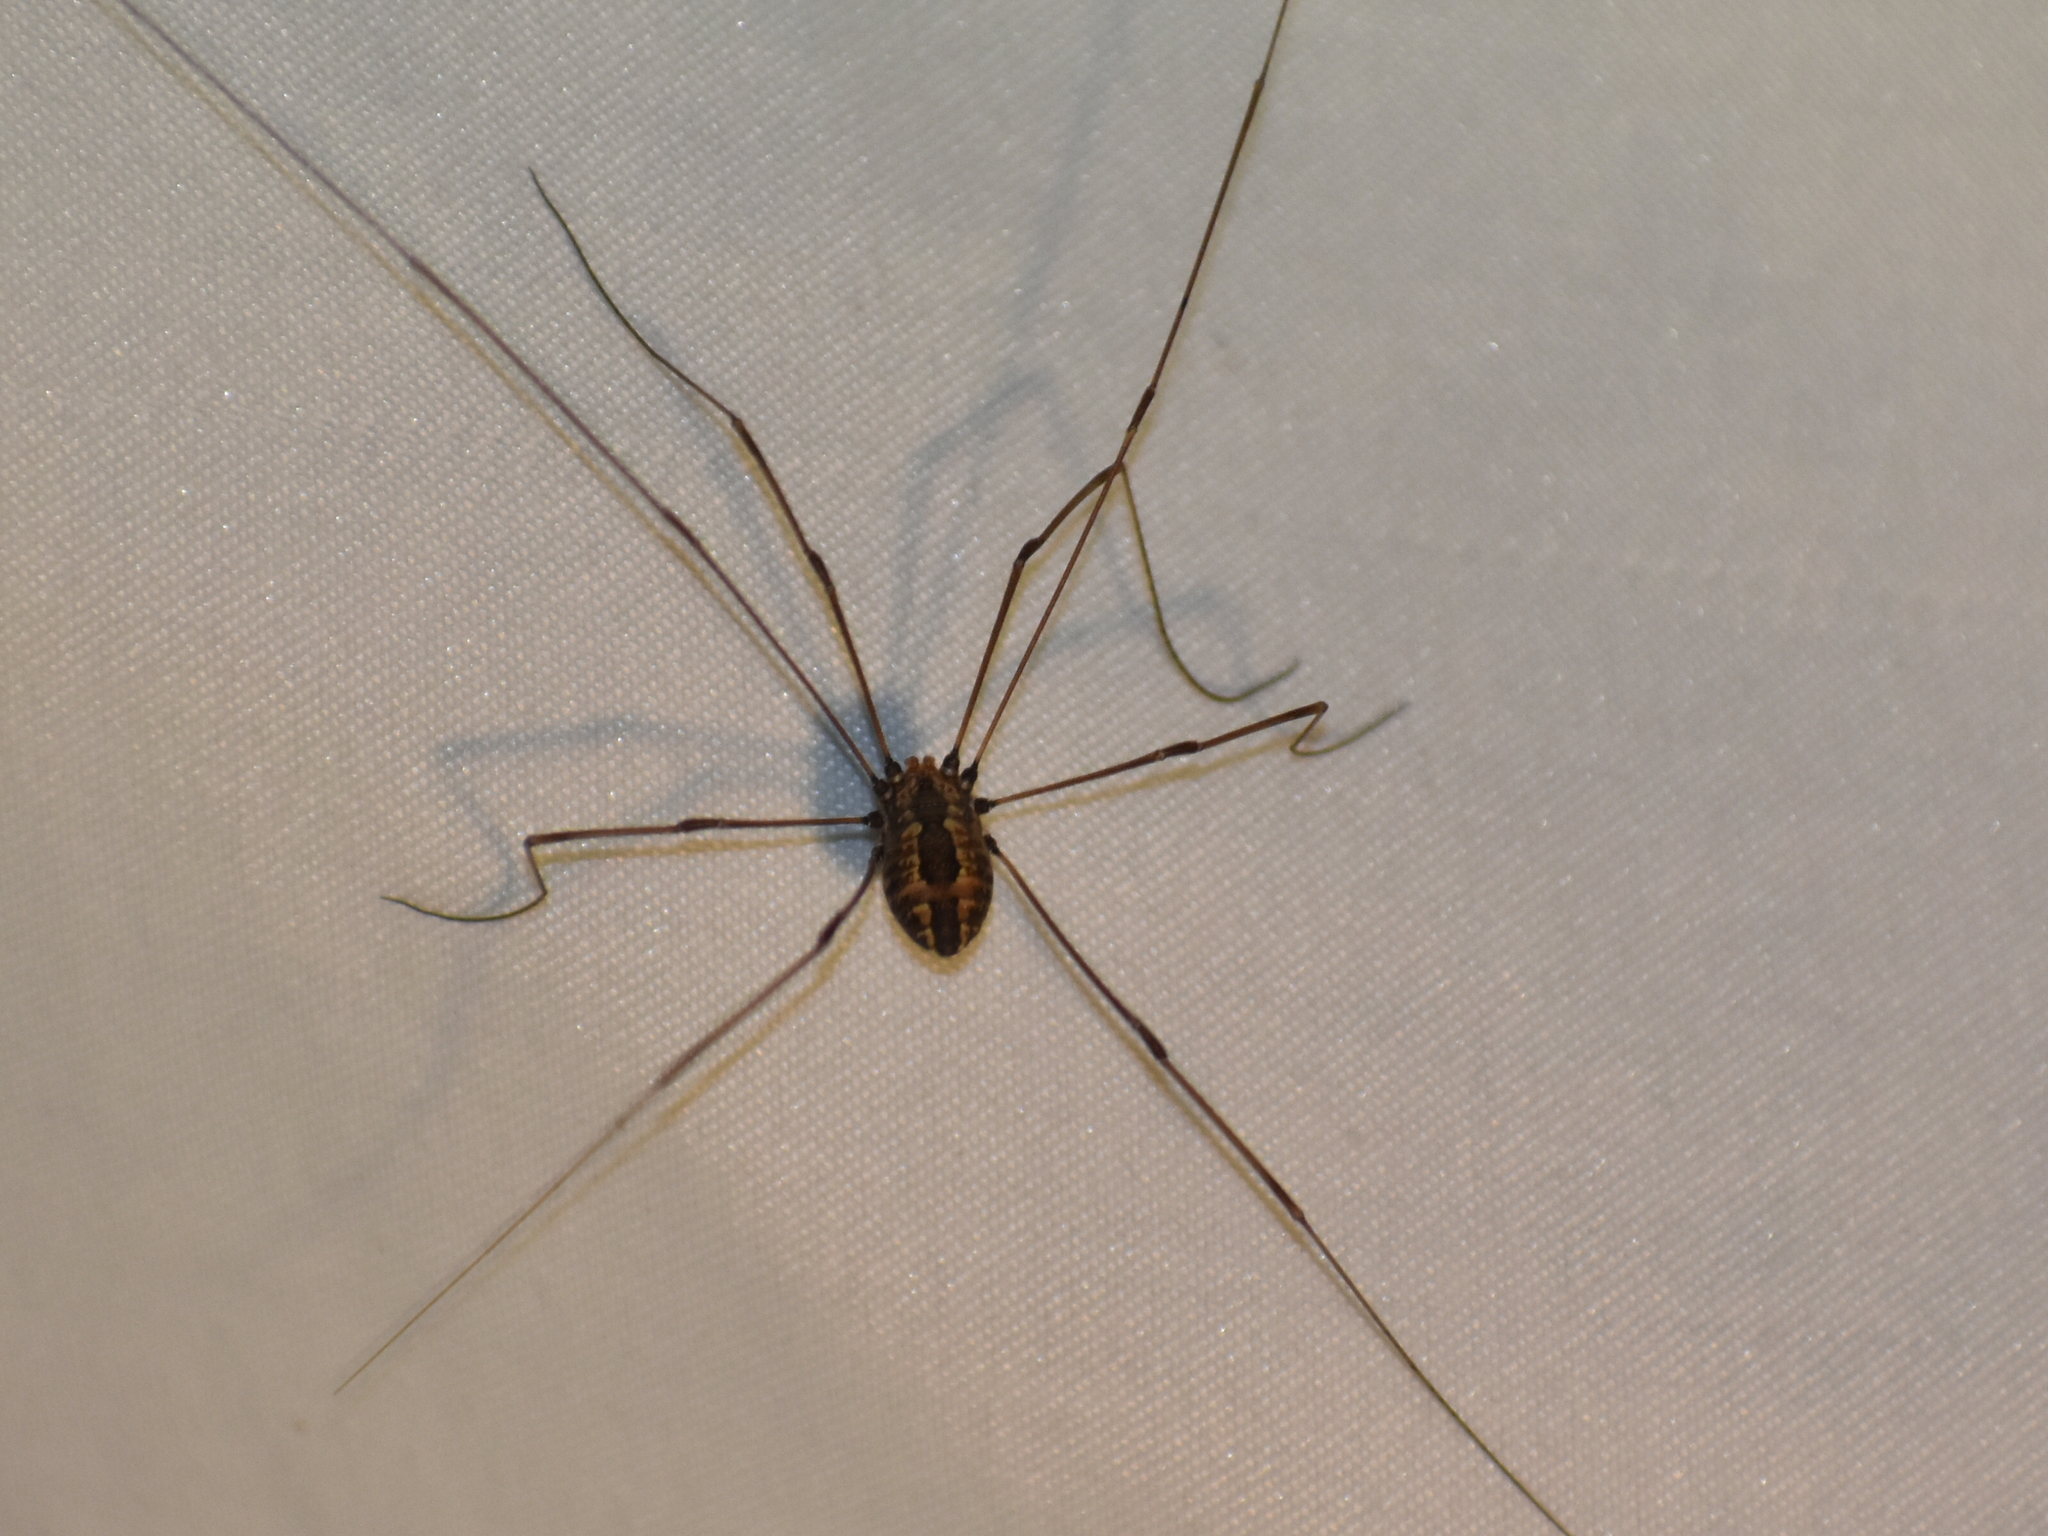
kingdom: Animalia
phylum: Arthropoda
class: Arachnida
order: Opiliones
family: Sclerosomatidae
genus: Leiobunum
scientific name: Leiobunum vittatum
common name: Eastern harvestman
